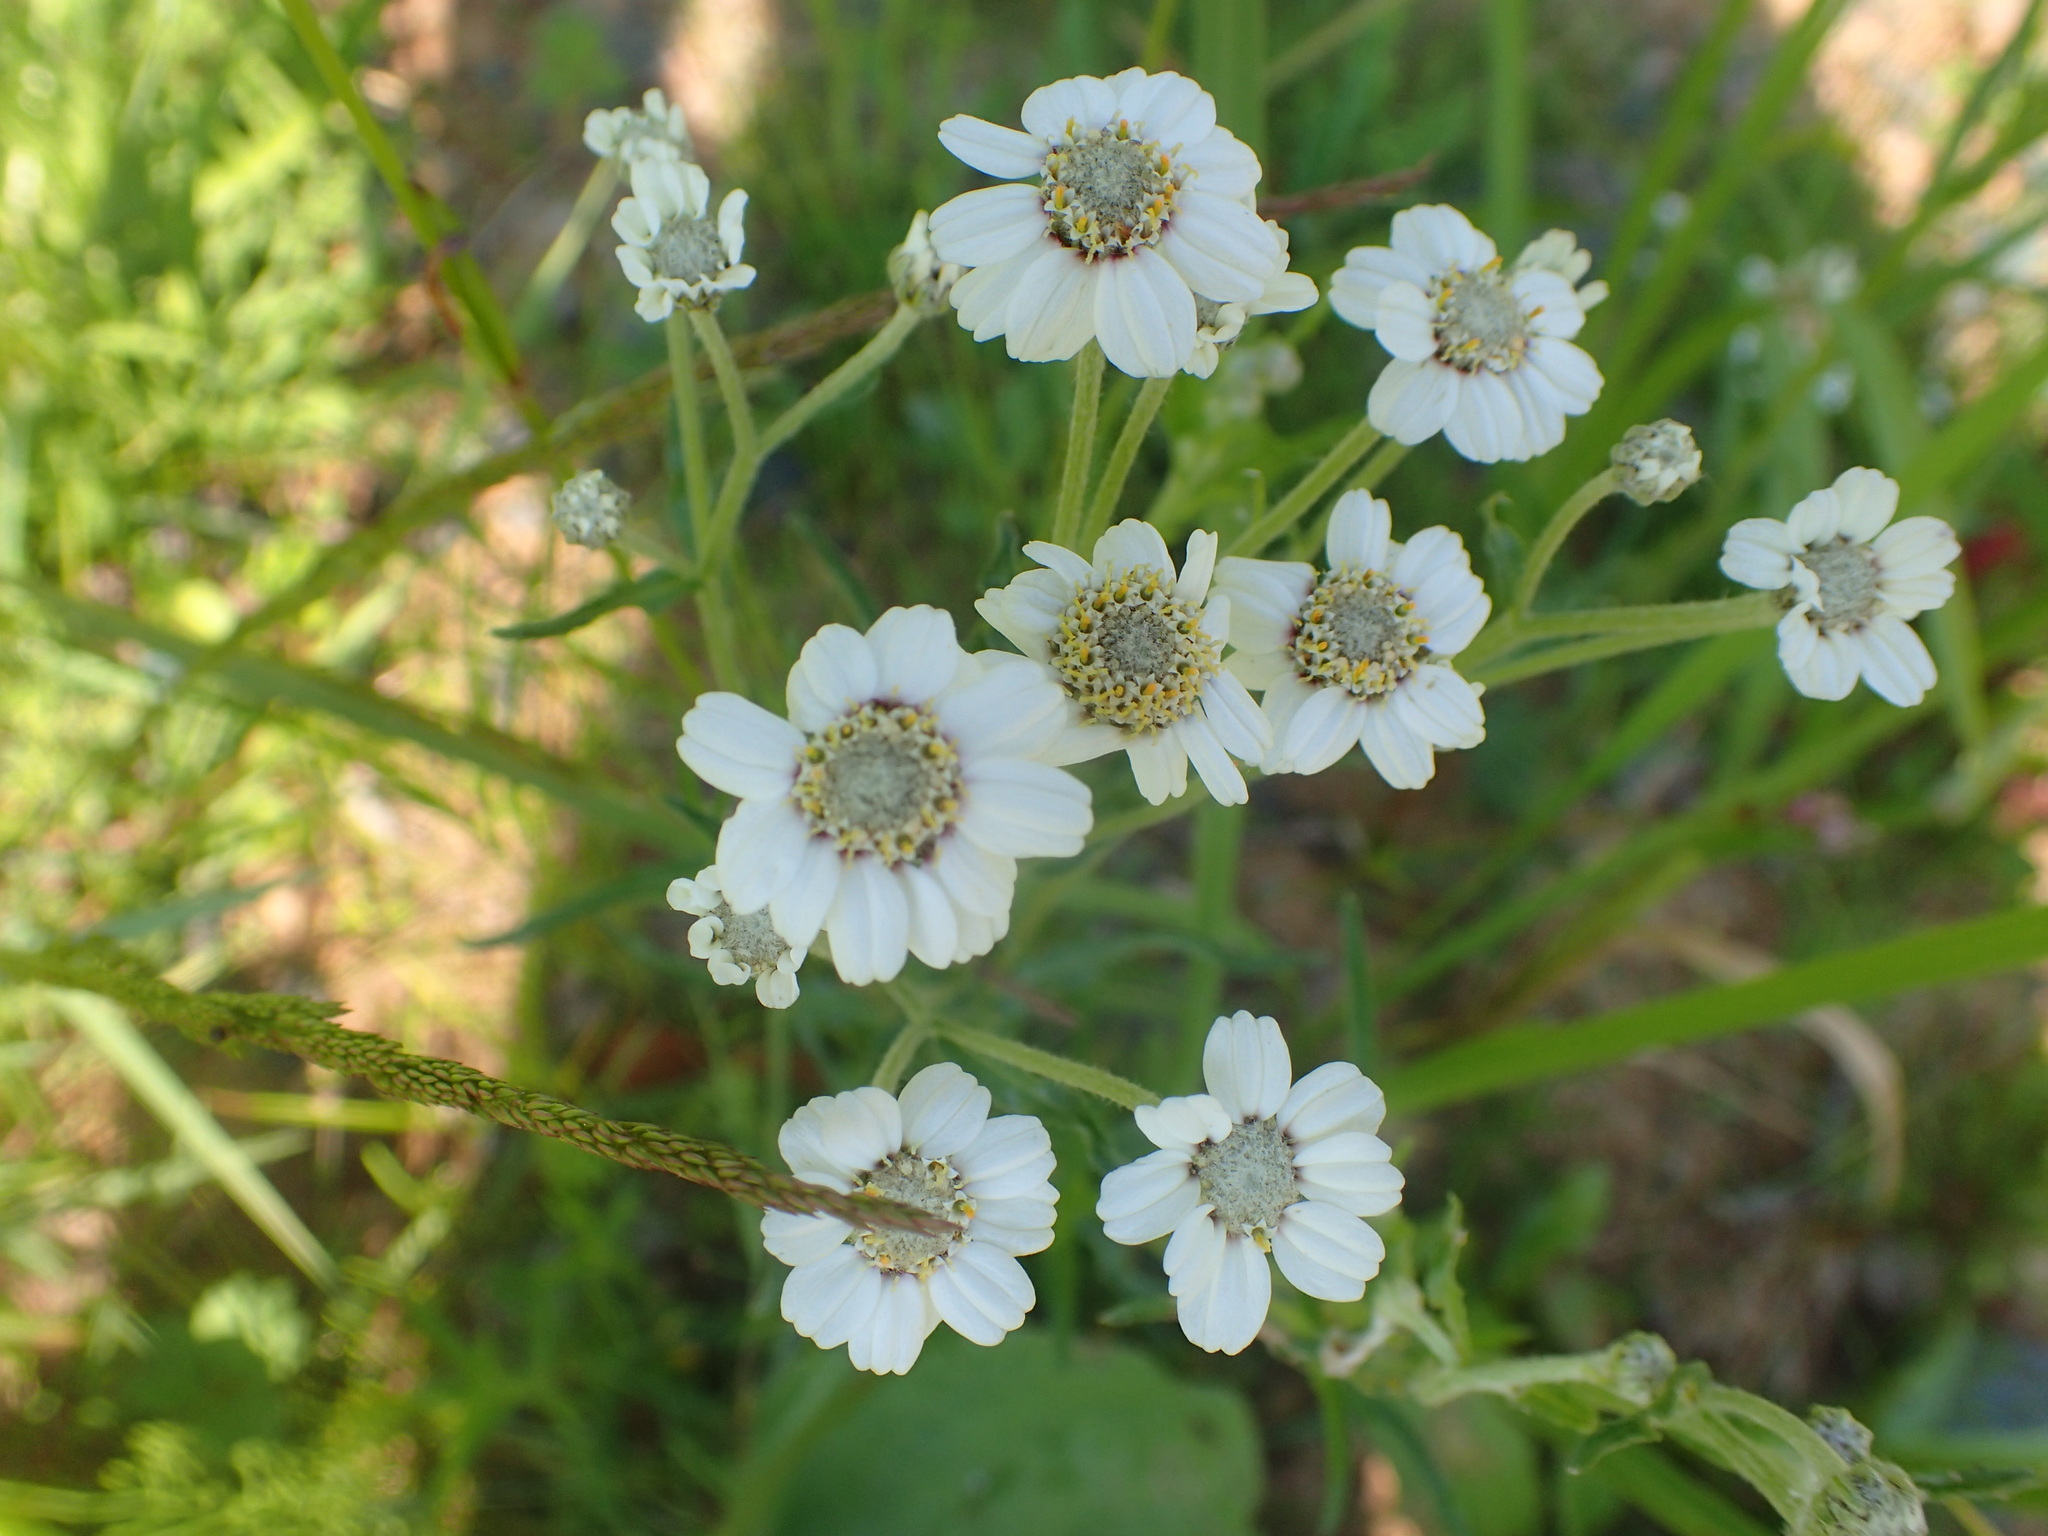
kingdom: Plantae
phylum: Tracheophyta
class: Magnoliopsida
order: Asterales
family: Asteraceae
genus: Achillea
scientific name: Achillea ptarmica
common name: Sneezeweed
